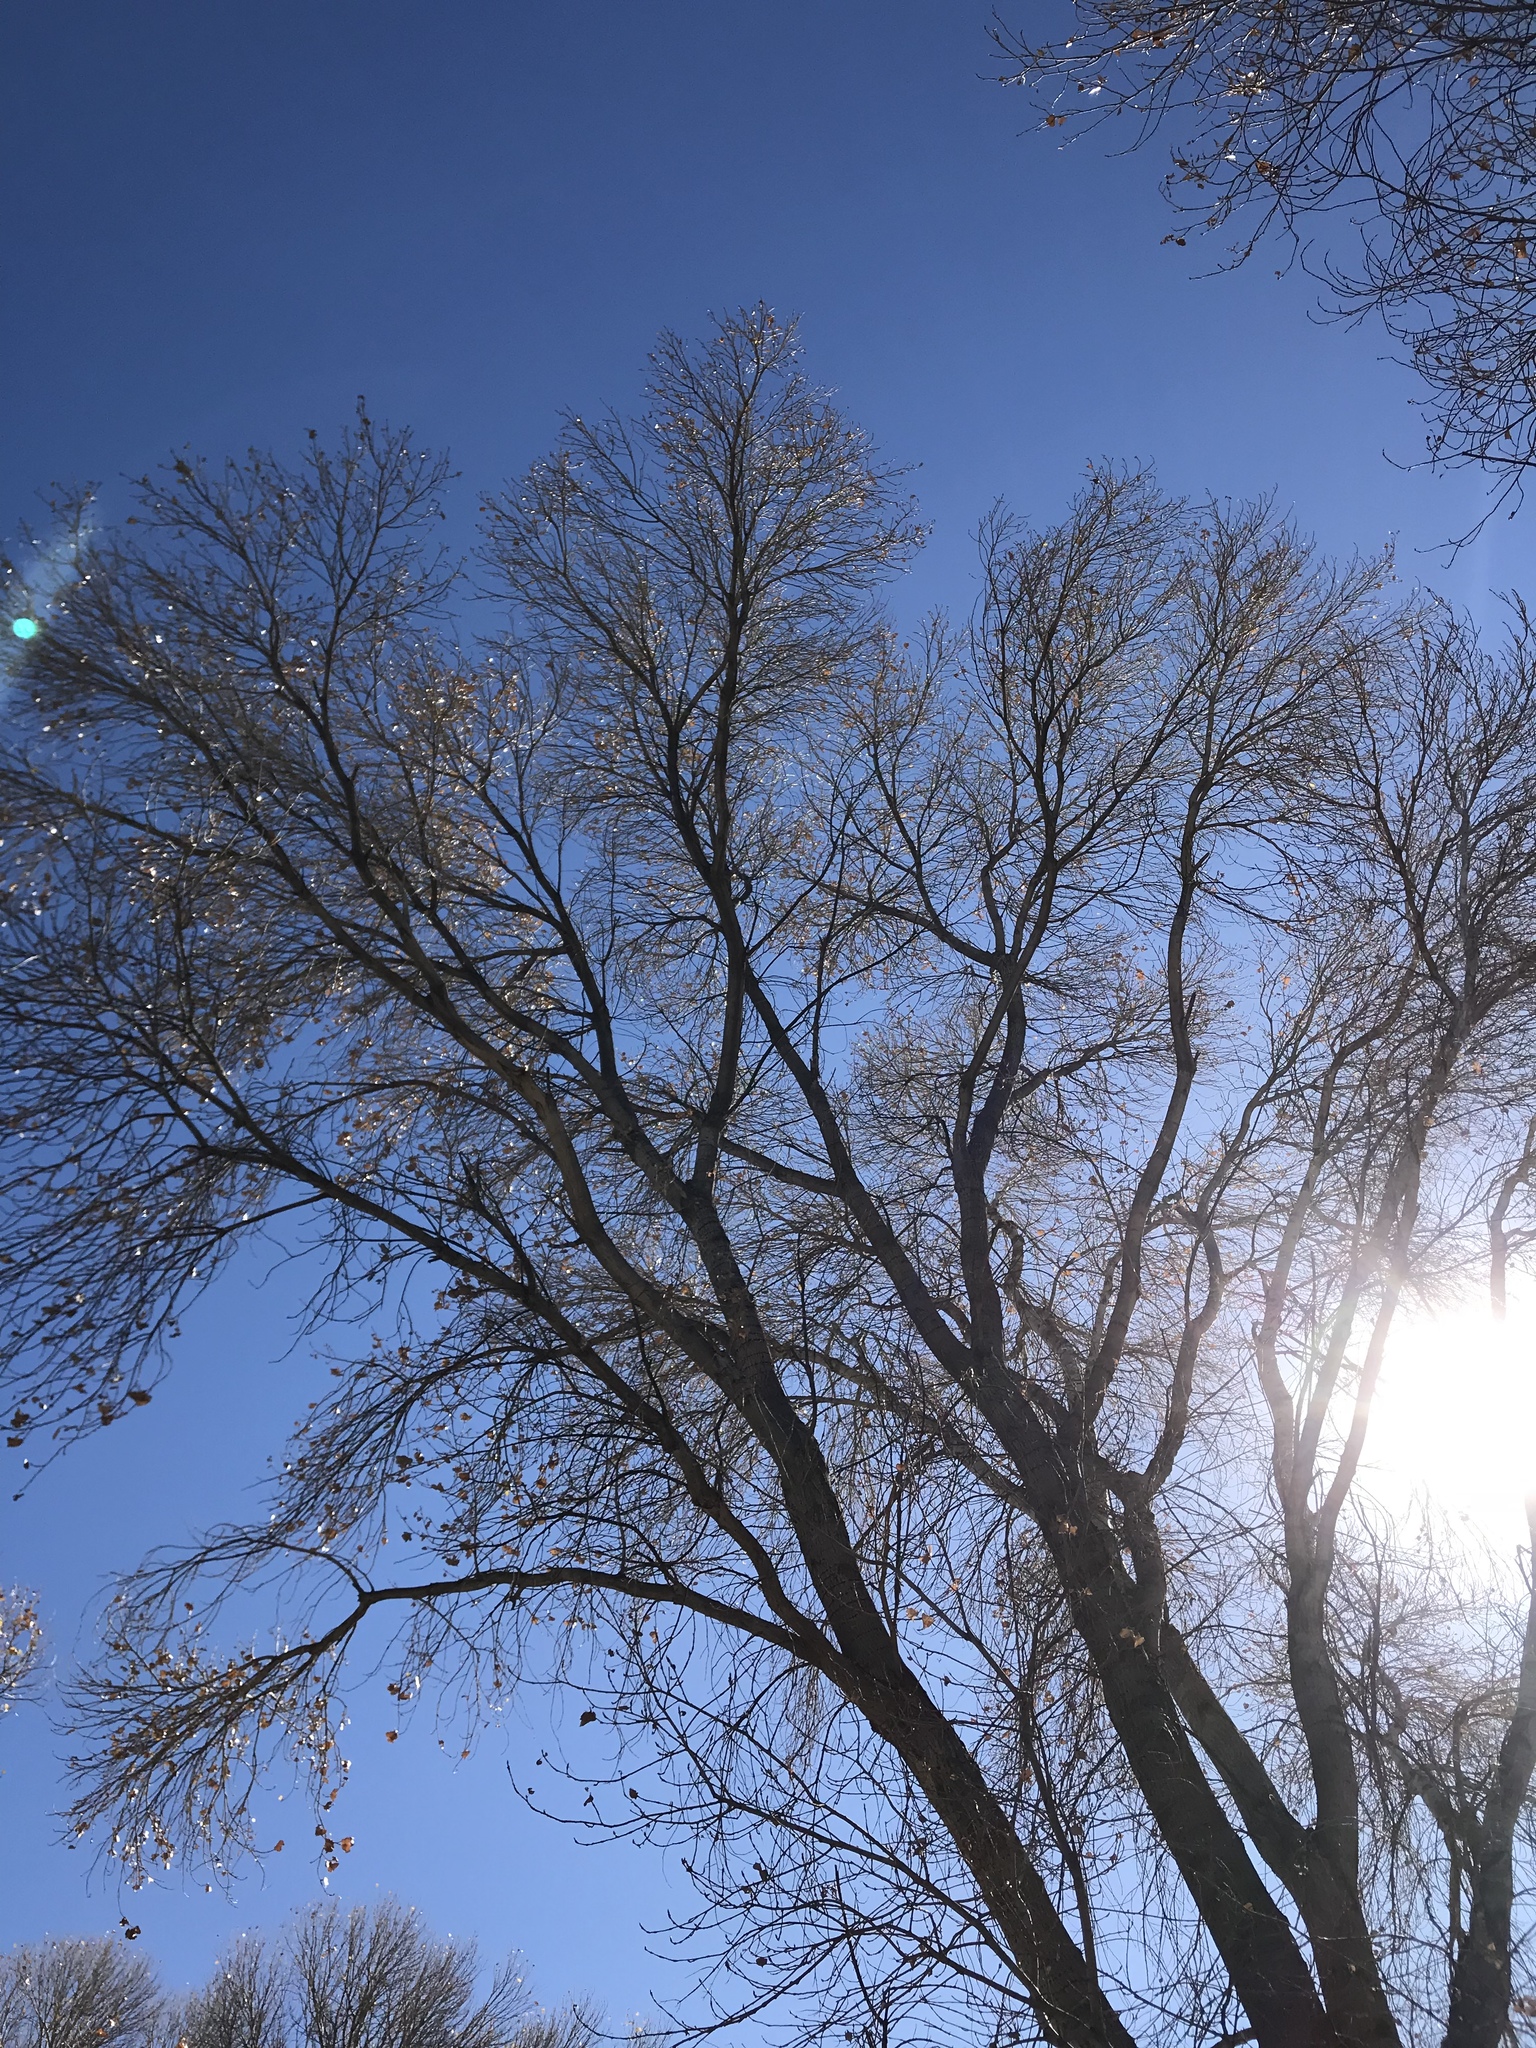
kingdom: Plantae
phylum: Tracheophyta
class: Magnoliopsida
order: Malpighiales
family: Salicaceae
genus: Populus
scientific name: Populus fremontii
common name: Fremont's cottonwood
